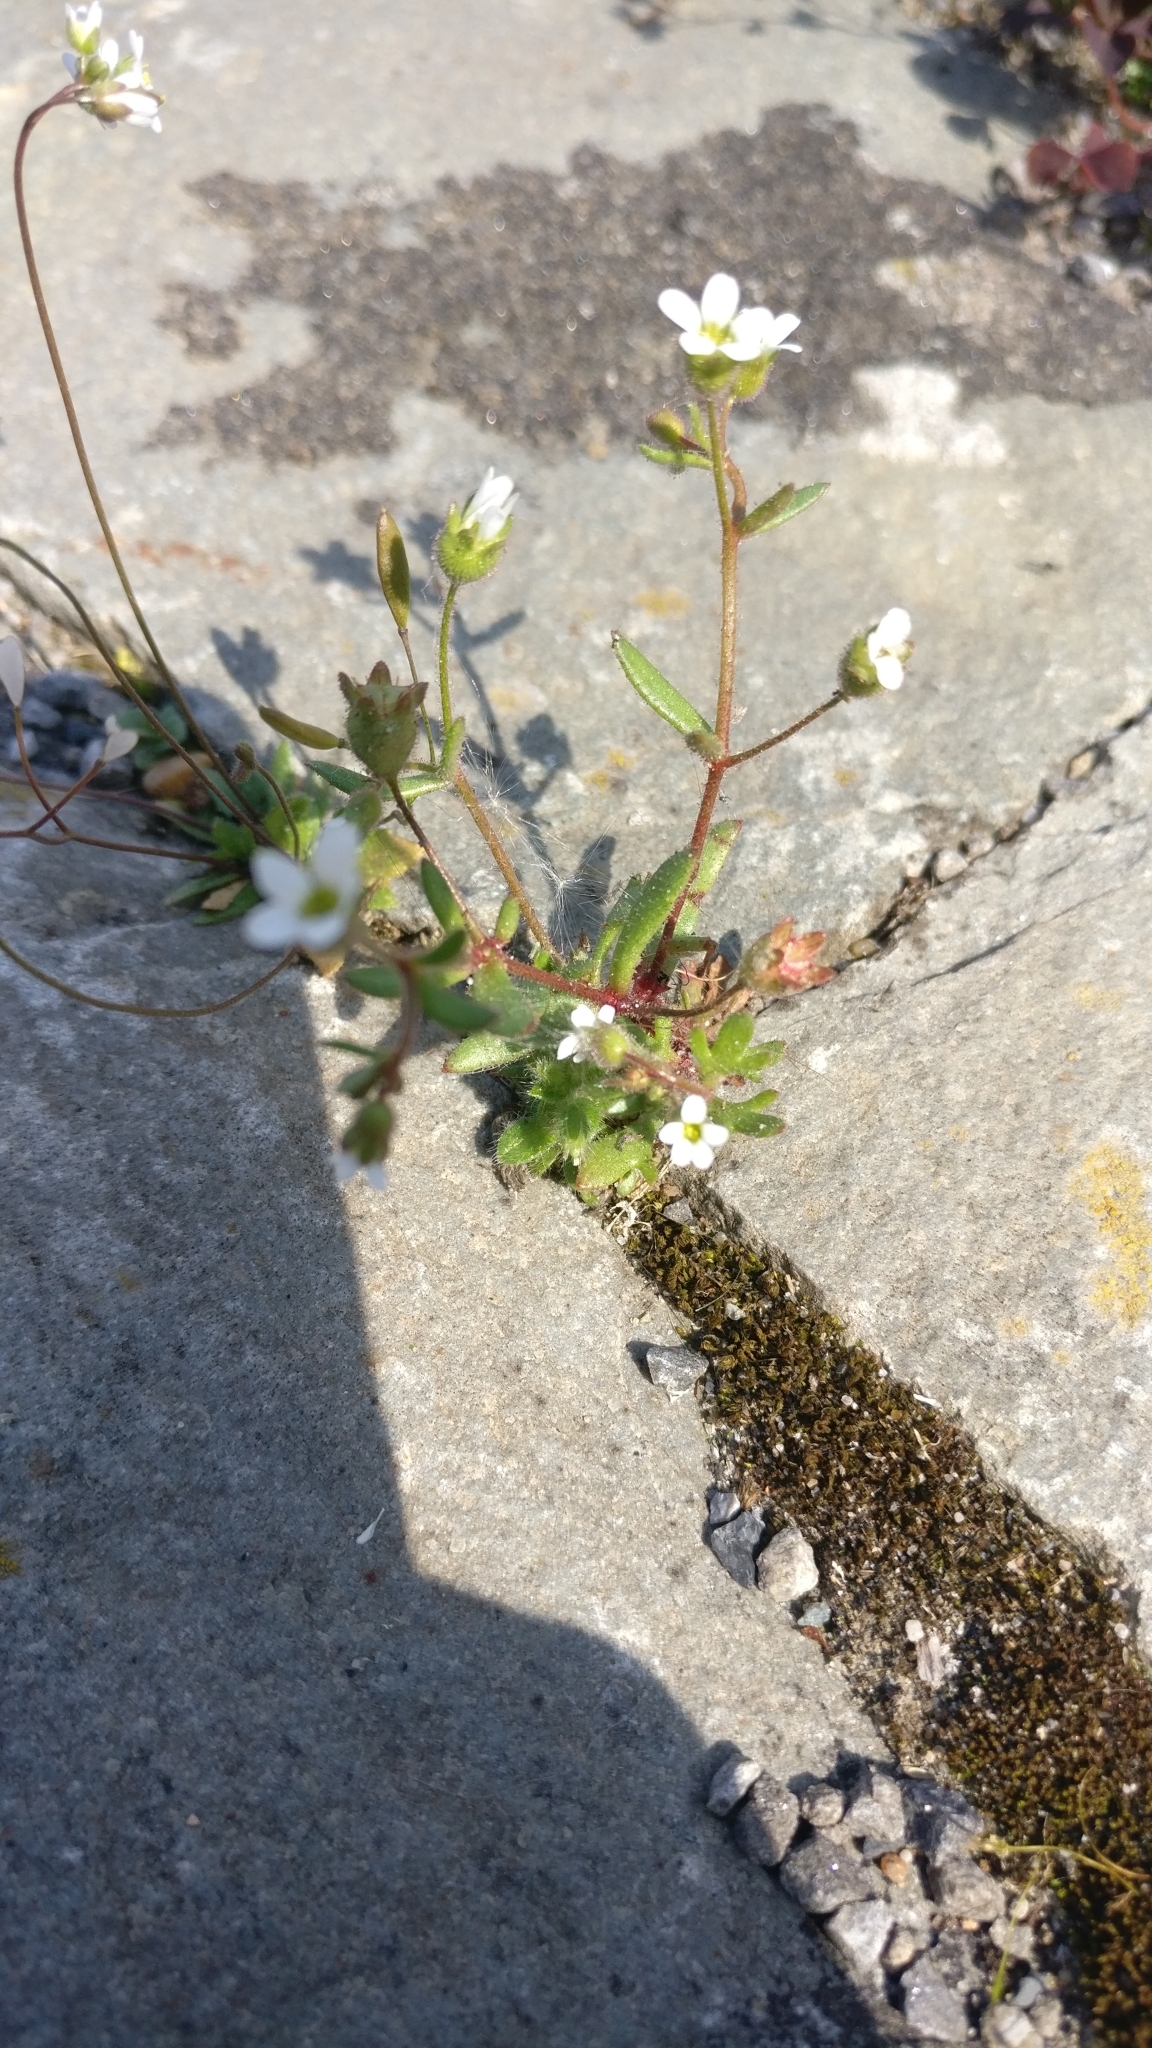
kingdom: Plantae
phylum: Tracheophyta
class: Magnoliopsida
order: Saxifragales
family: Saxifragaceae
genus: Saxifraga
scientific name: Saxifraga tridactylites
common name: Rue-leaved saxifrage
